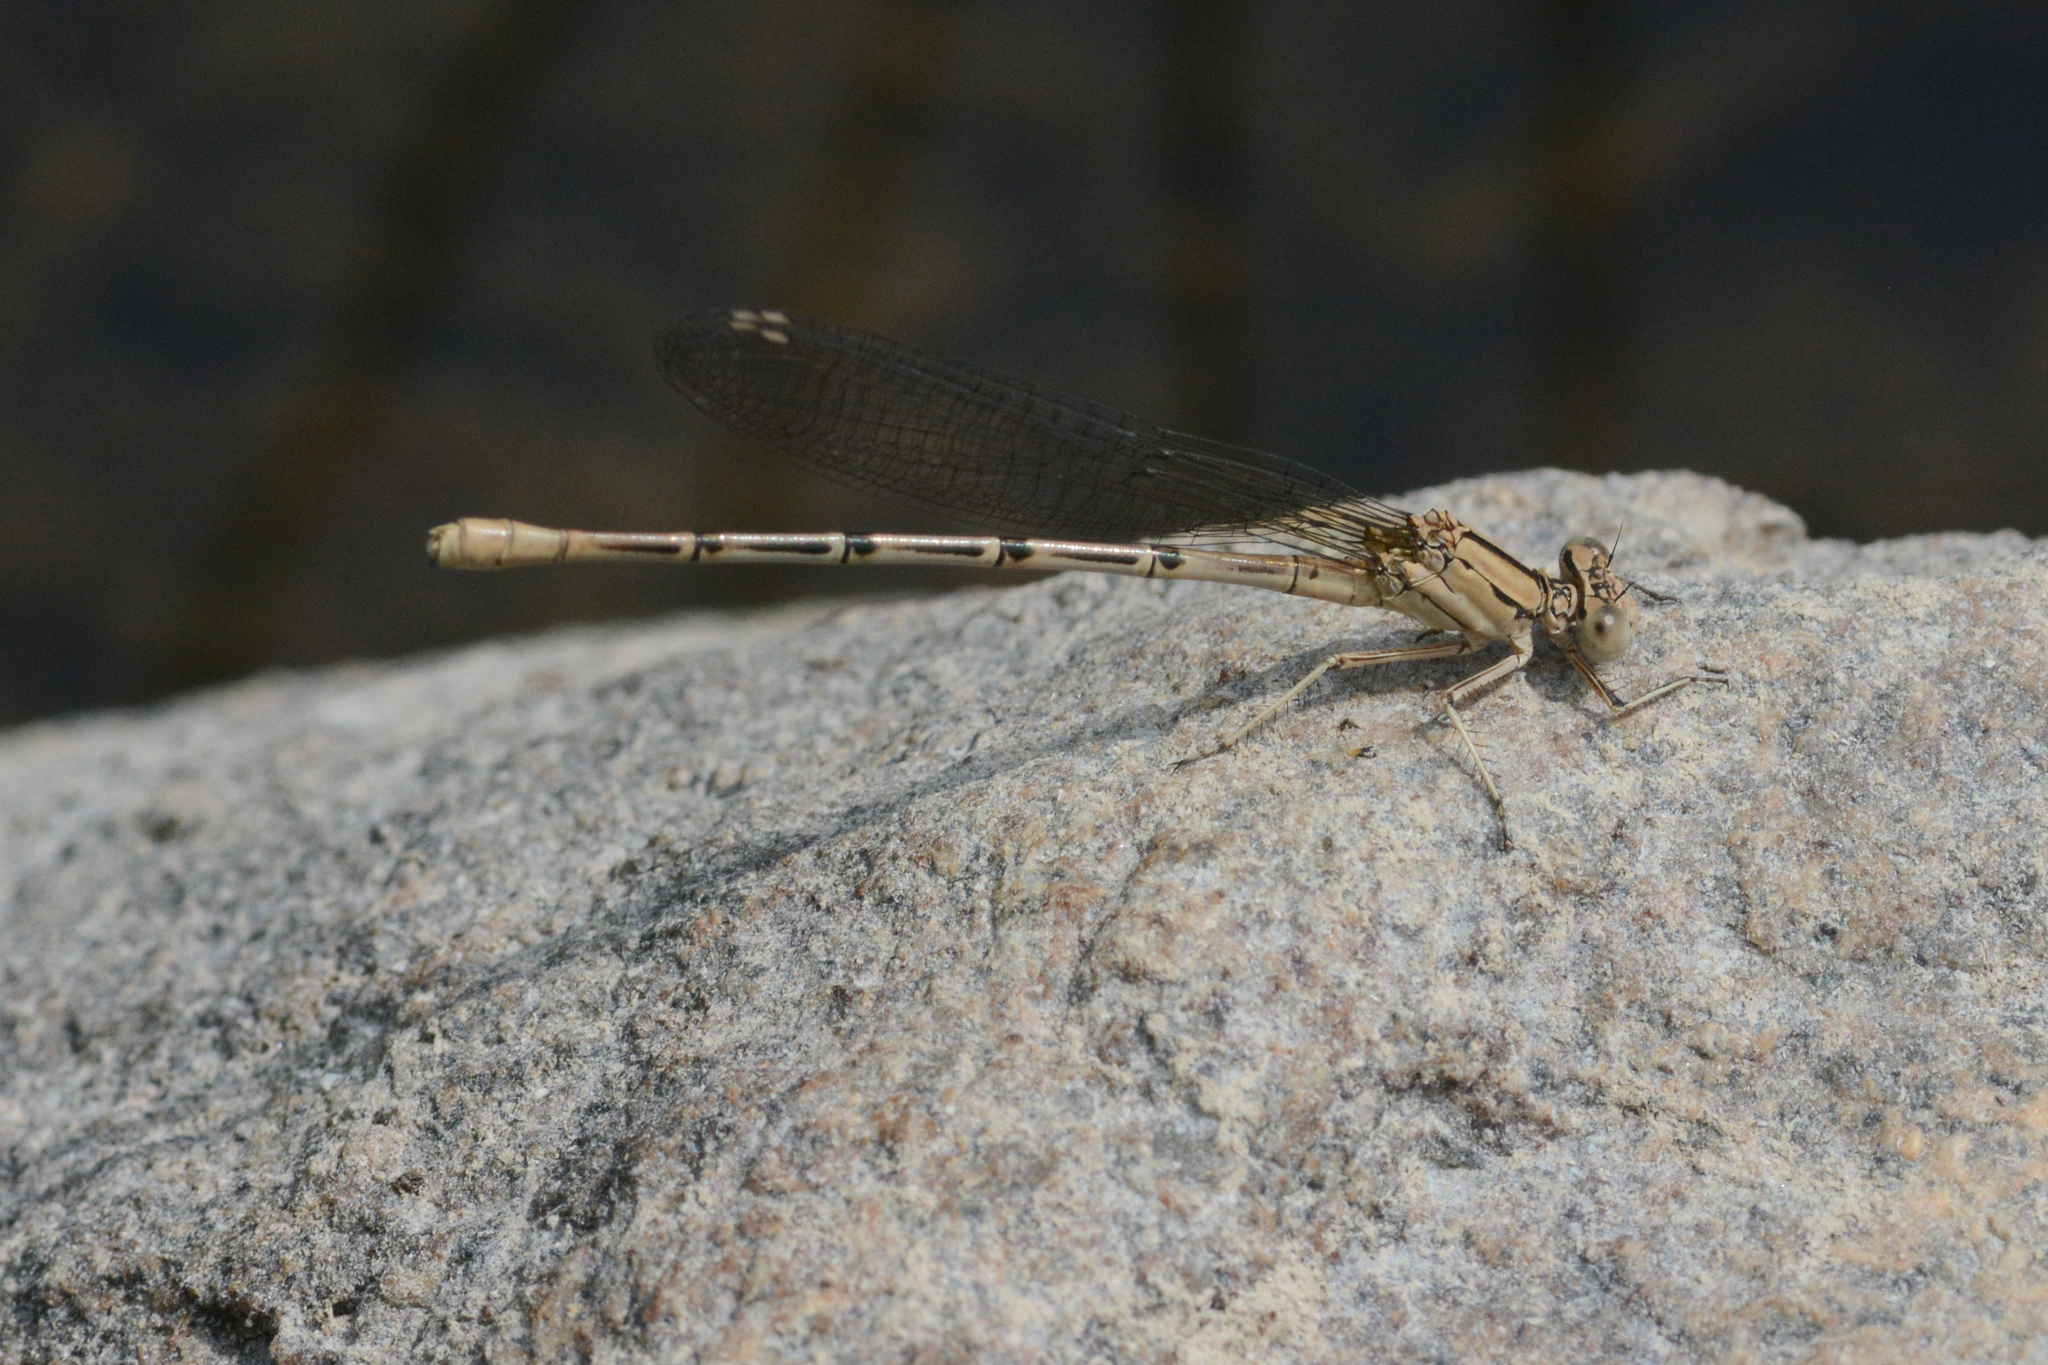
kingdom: Animalia
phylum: Arthropoda
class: Insecta
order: Odonata
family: Coenagrionidae
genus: Argia
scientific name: Argia emma
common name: Emma's dancer
